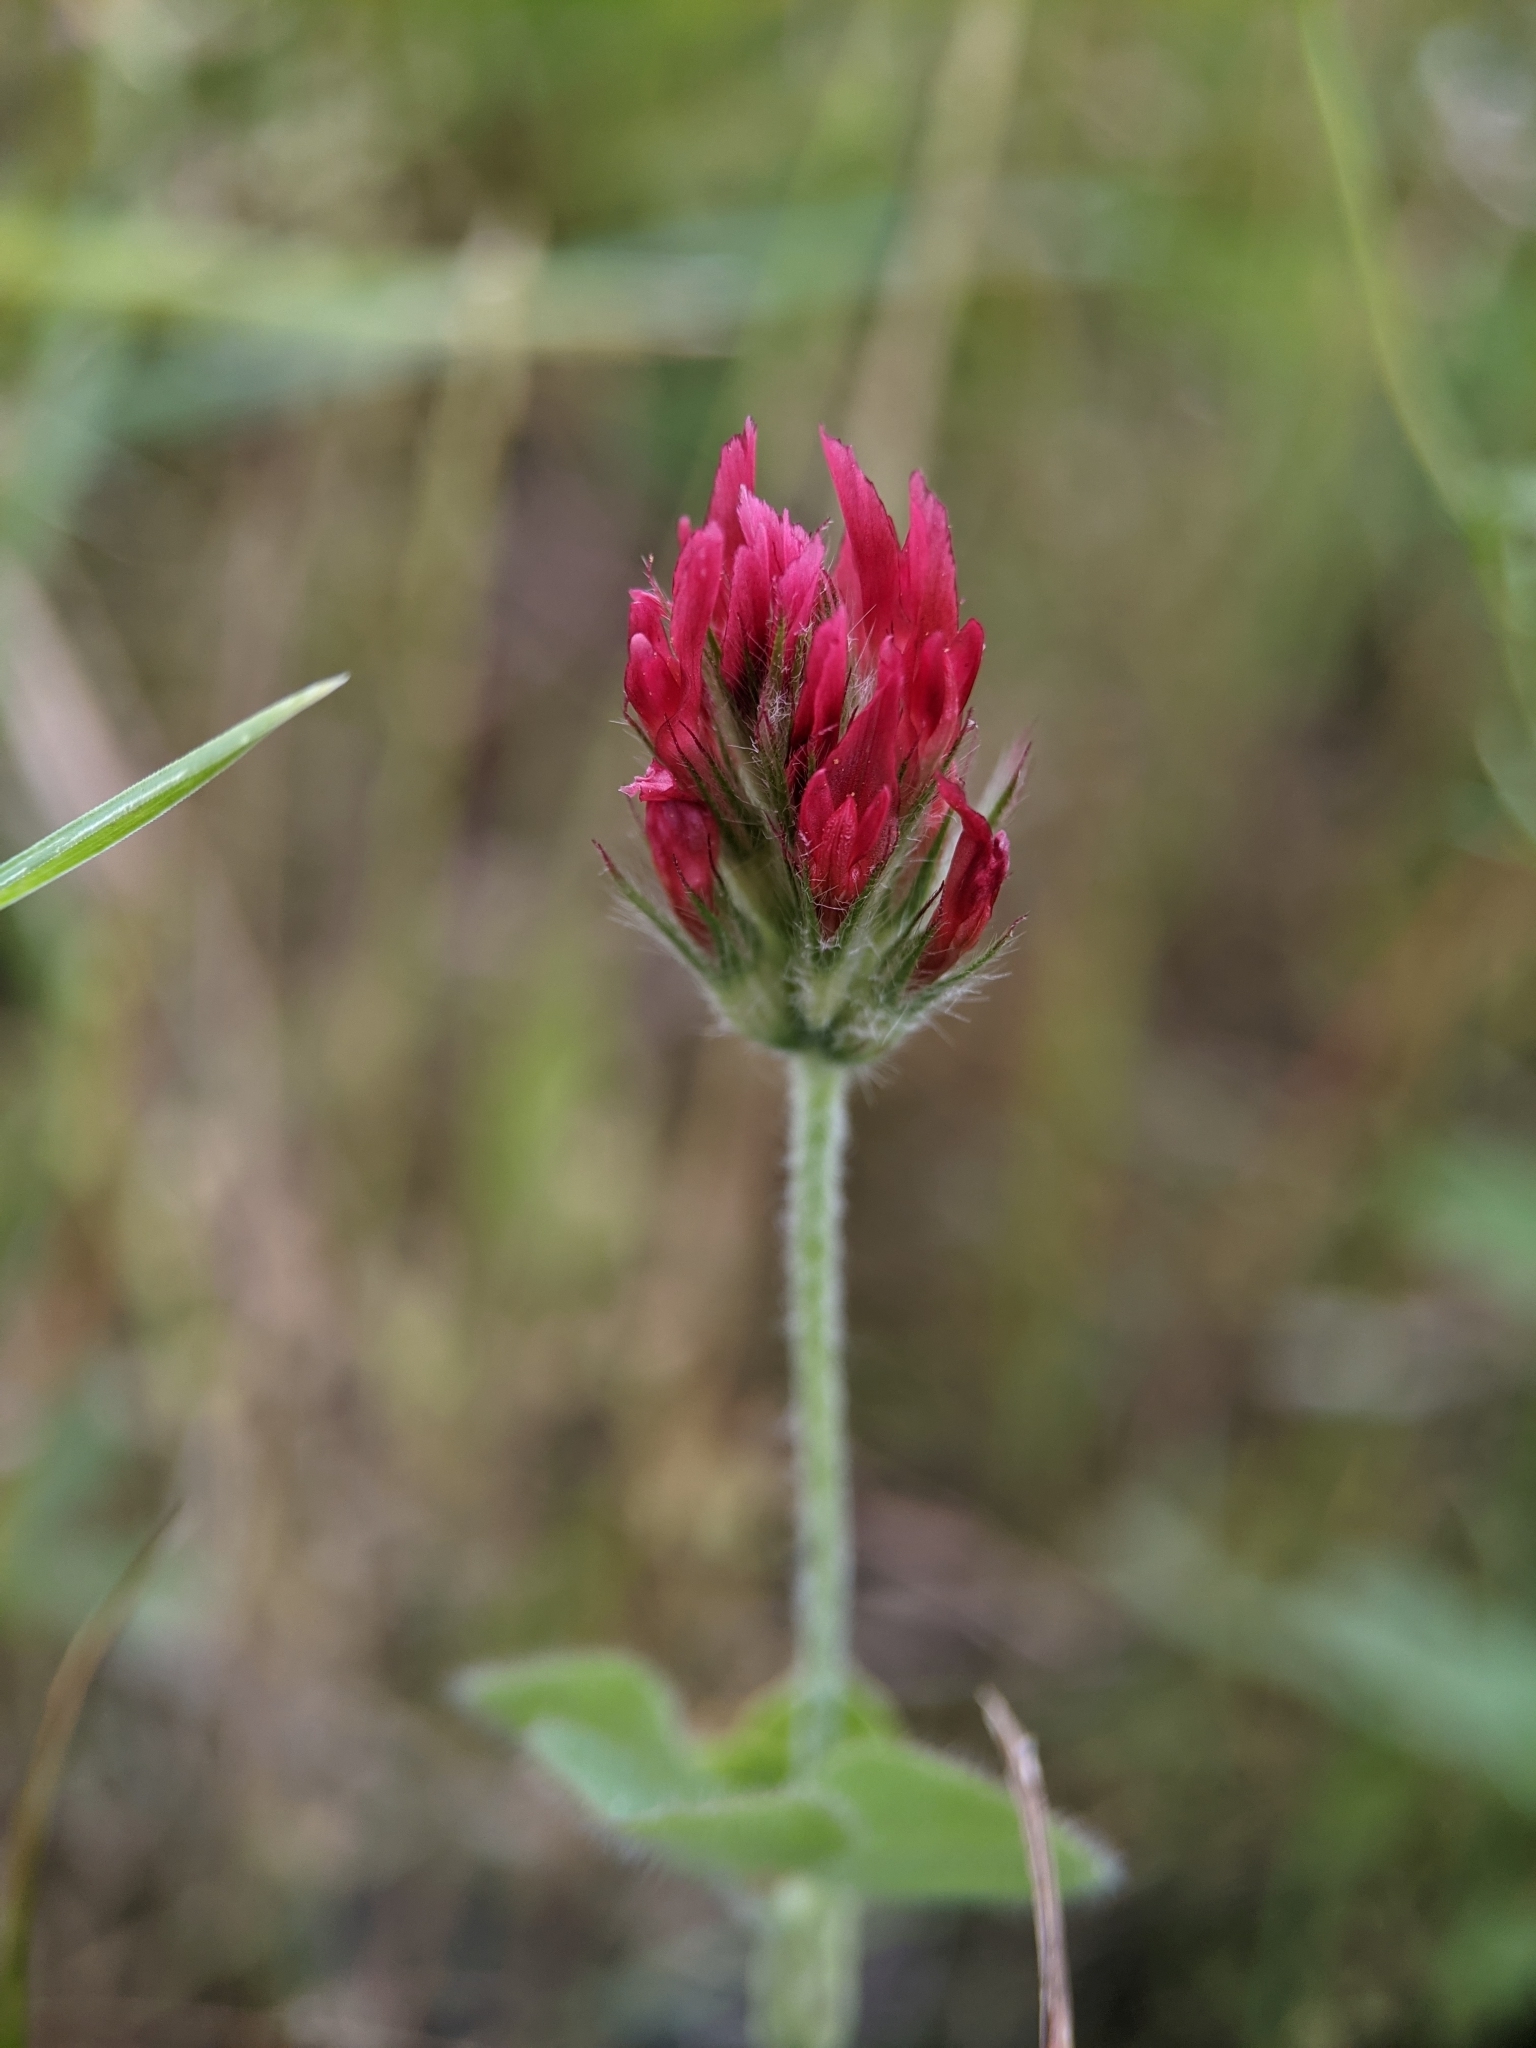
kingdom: Plantae
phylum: Tracheophyta
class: Magnoliopsida
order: Fabales
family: Fabaceae
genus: Trifolium
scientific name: Trifolium incarnatum
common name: Crimson clover
